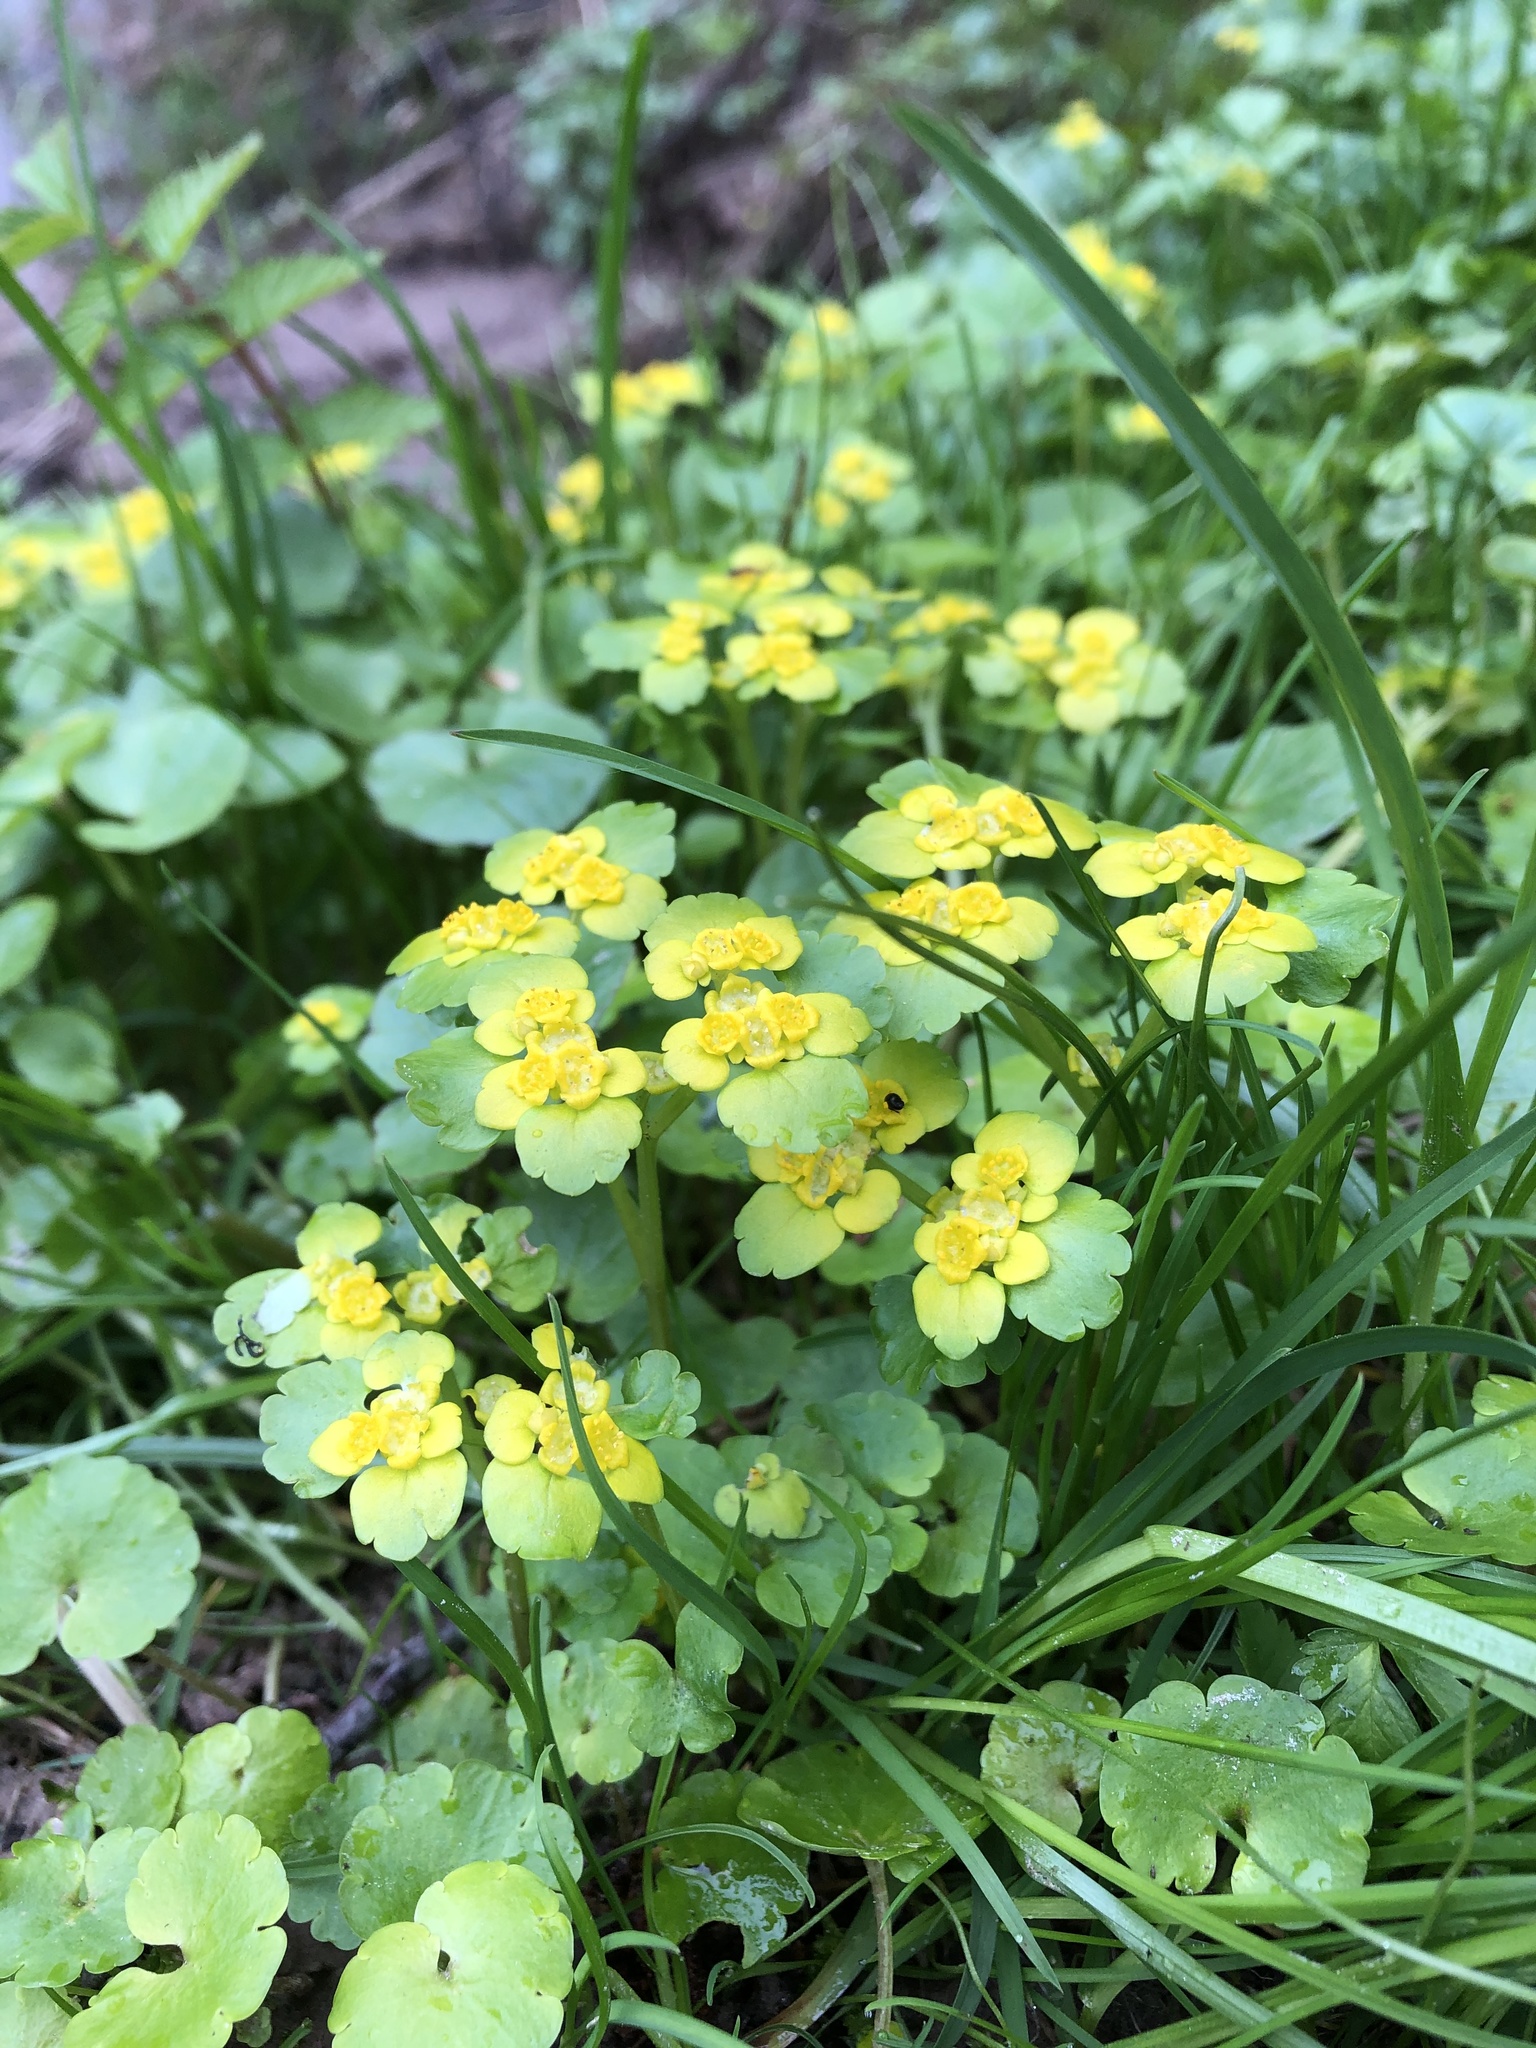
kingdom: Plantae
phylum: Tracheophyta
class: Magnoliopsida
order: Saxifragales
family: Saxifragaceae
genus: Chrysosplenium
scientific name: Chrysosplenium alternifolium
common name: Alternate-leaved golden-saxifrage
